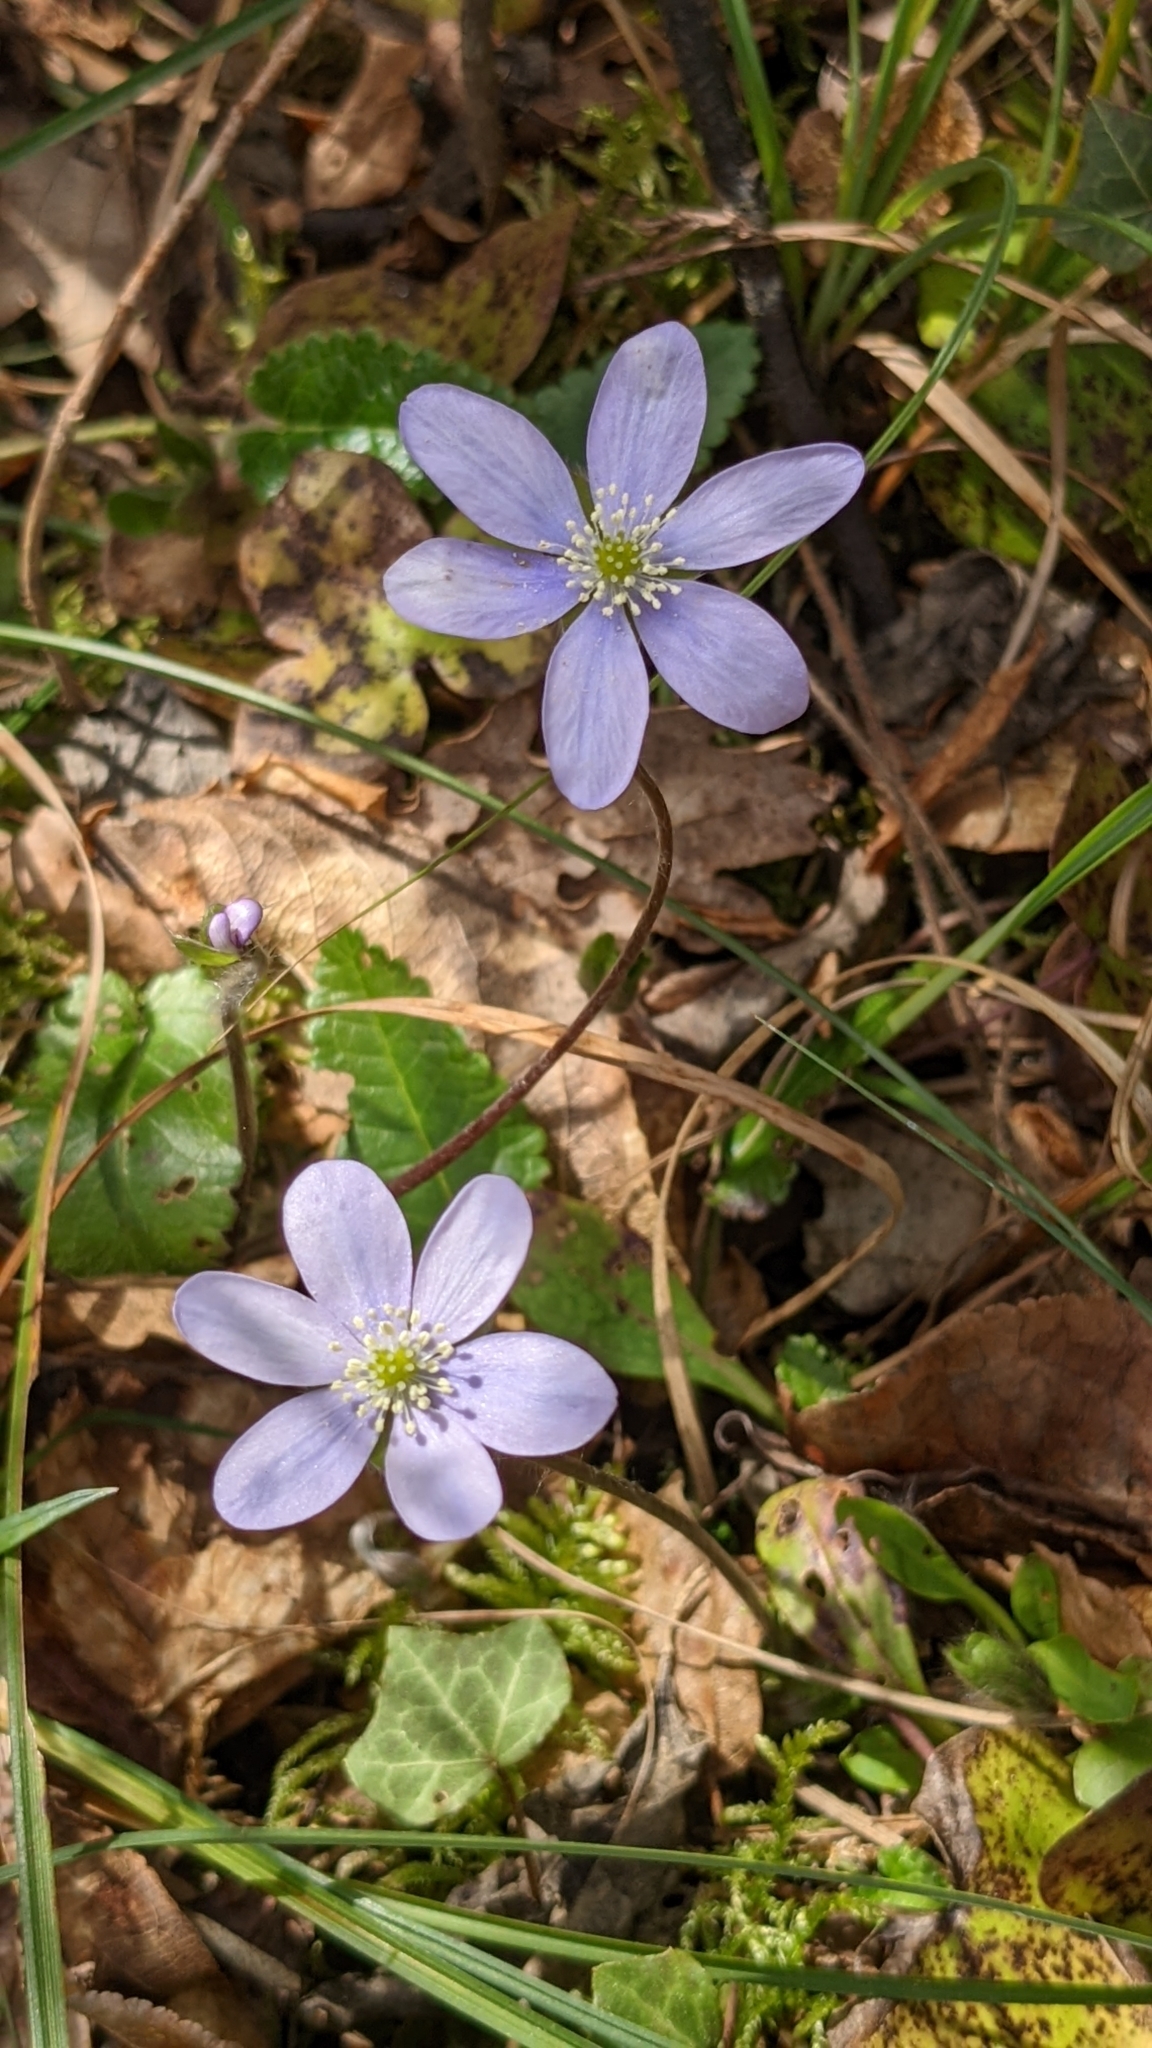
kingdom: Plantae
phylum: Tracheophyta
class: Magnoliopsida
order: Ranunculales
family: Ranunculaceae
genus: Hepatica
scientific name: Hepatica nobilis
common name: Liverleaf
